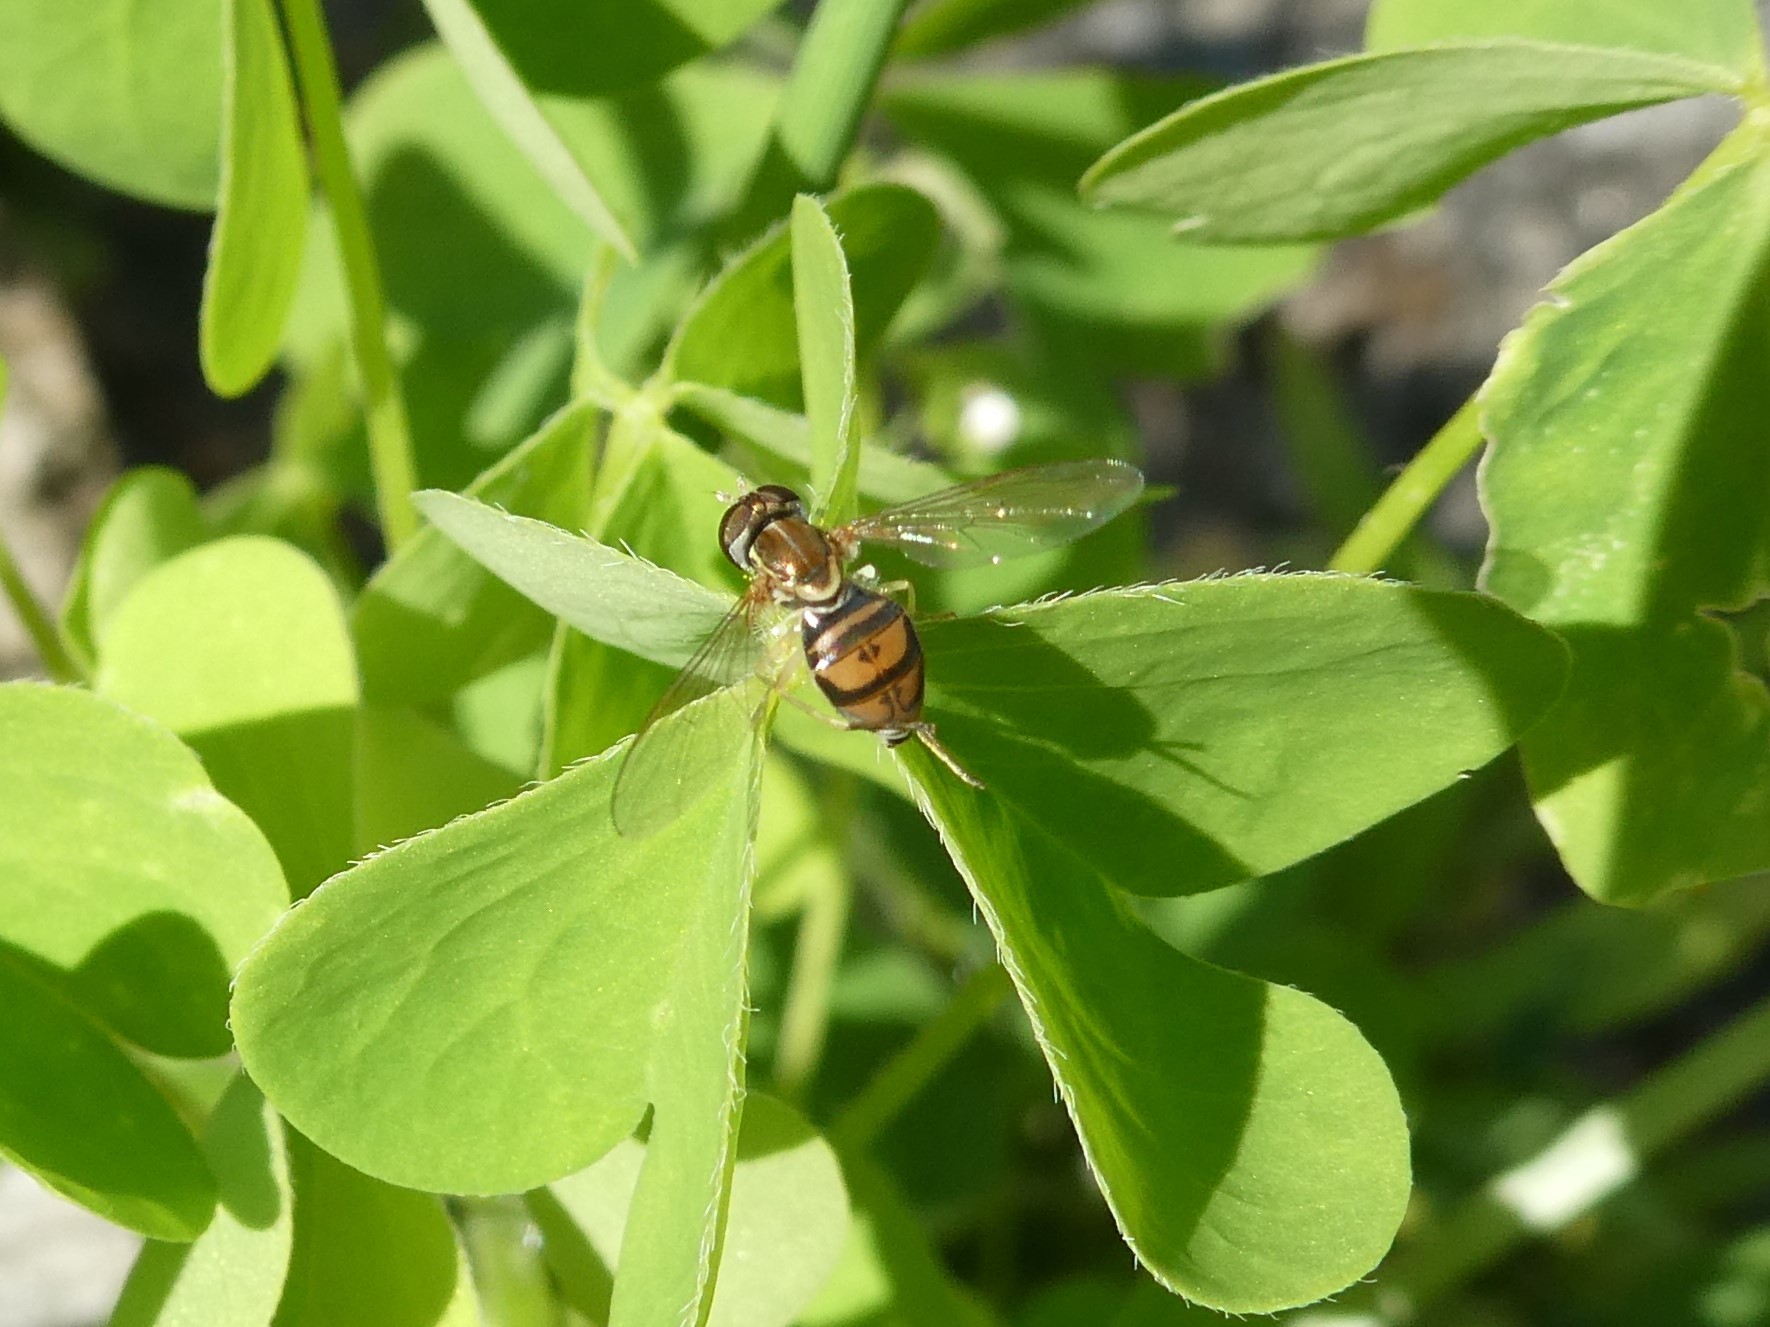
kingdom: Animalia
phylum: Arthropoda
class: Insecta
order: Diptera
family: Syrphidae
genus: Toxomerus
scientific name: Toxomerus marginatus
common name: Syrphid fly
